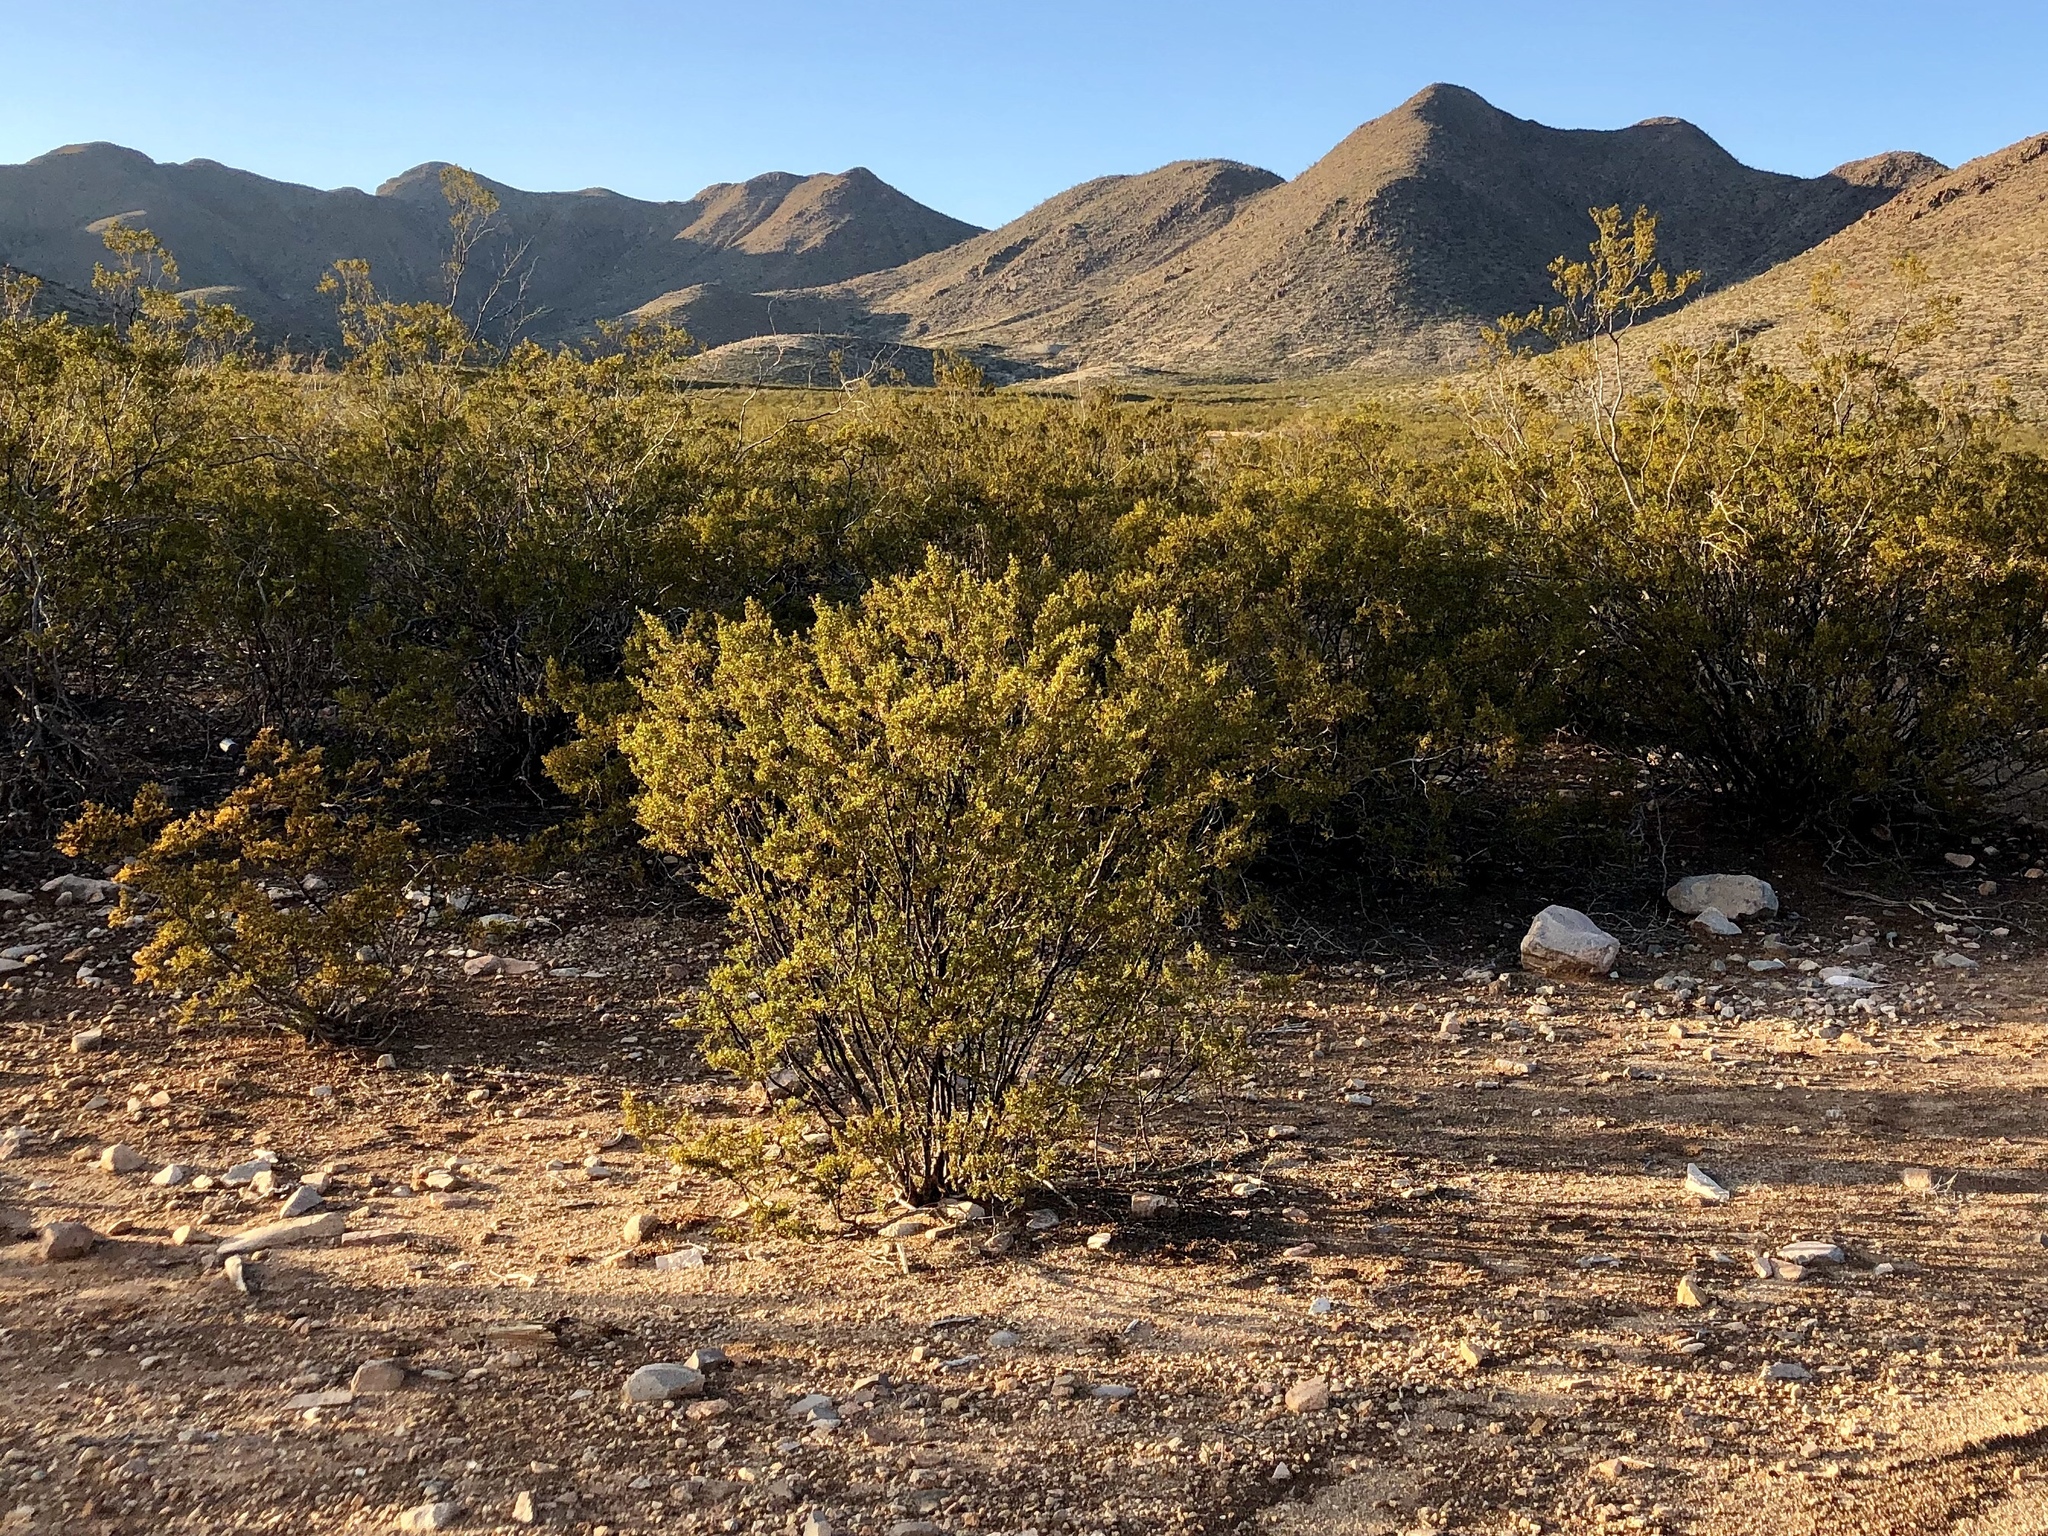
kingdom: Plantae
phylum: Tracheophyta
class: Magnoliopsida
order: Zygophyllales
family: Zygophyllaceae
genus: Larrea
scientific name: Larrea tridentata
